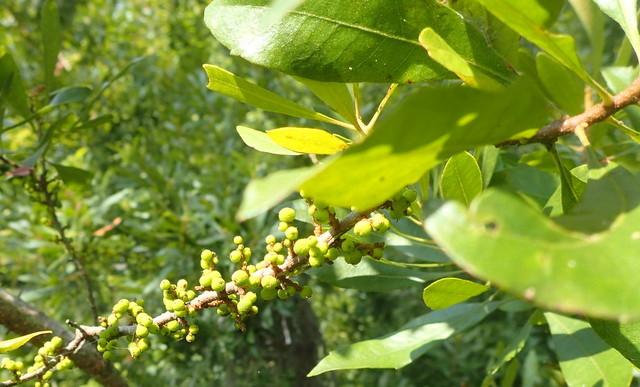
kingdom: Plantae
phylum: Tracheophyta
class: Magnoliopsida
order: Fagales
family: Myricaceae
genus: Morella
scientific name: Morella cerifera
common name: Wax myrtle
